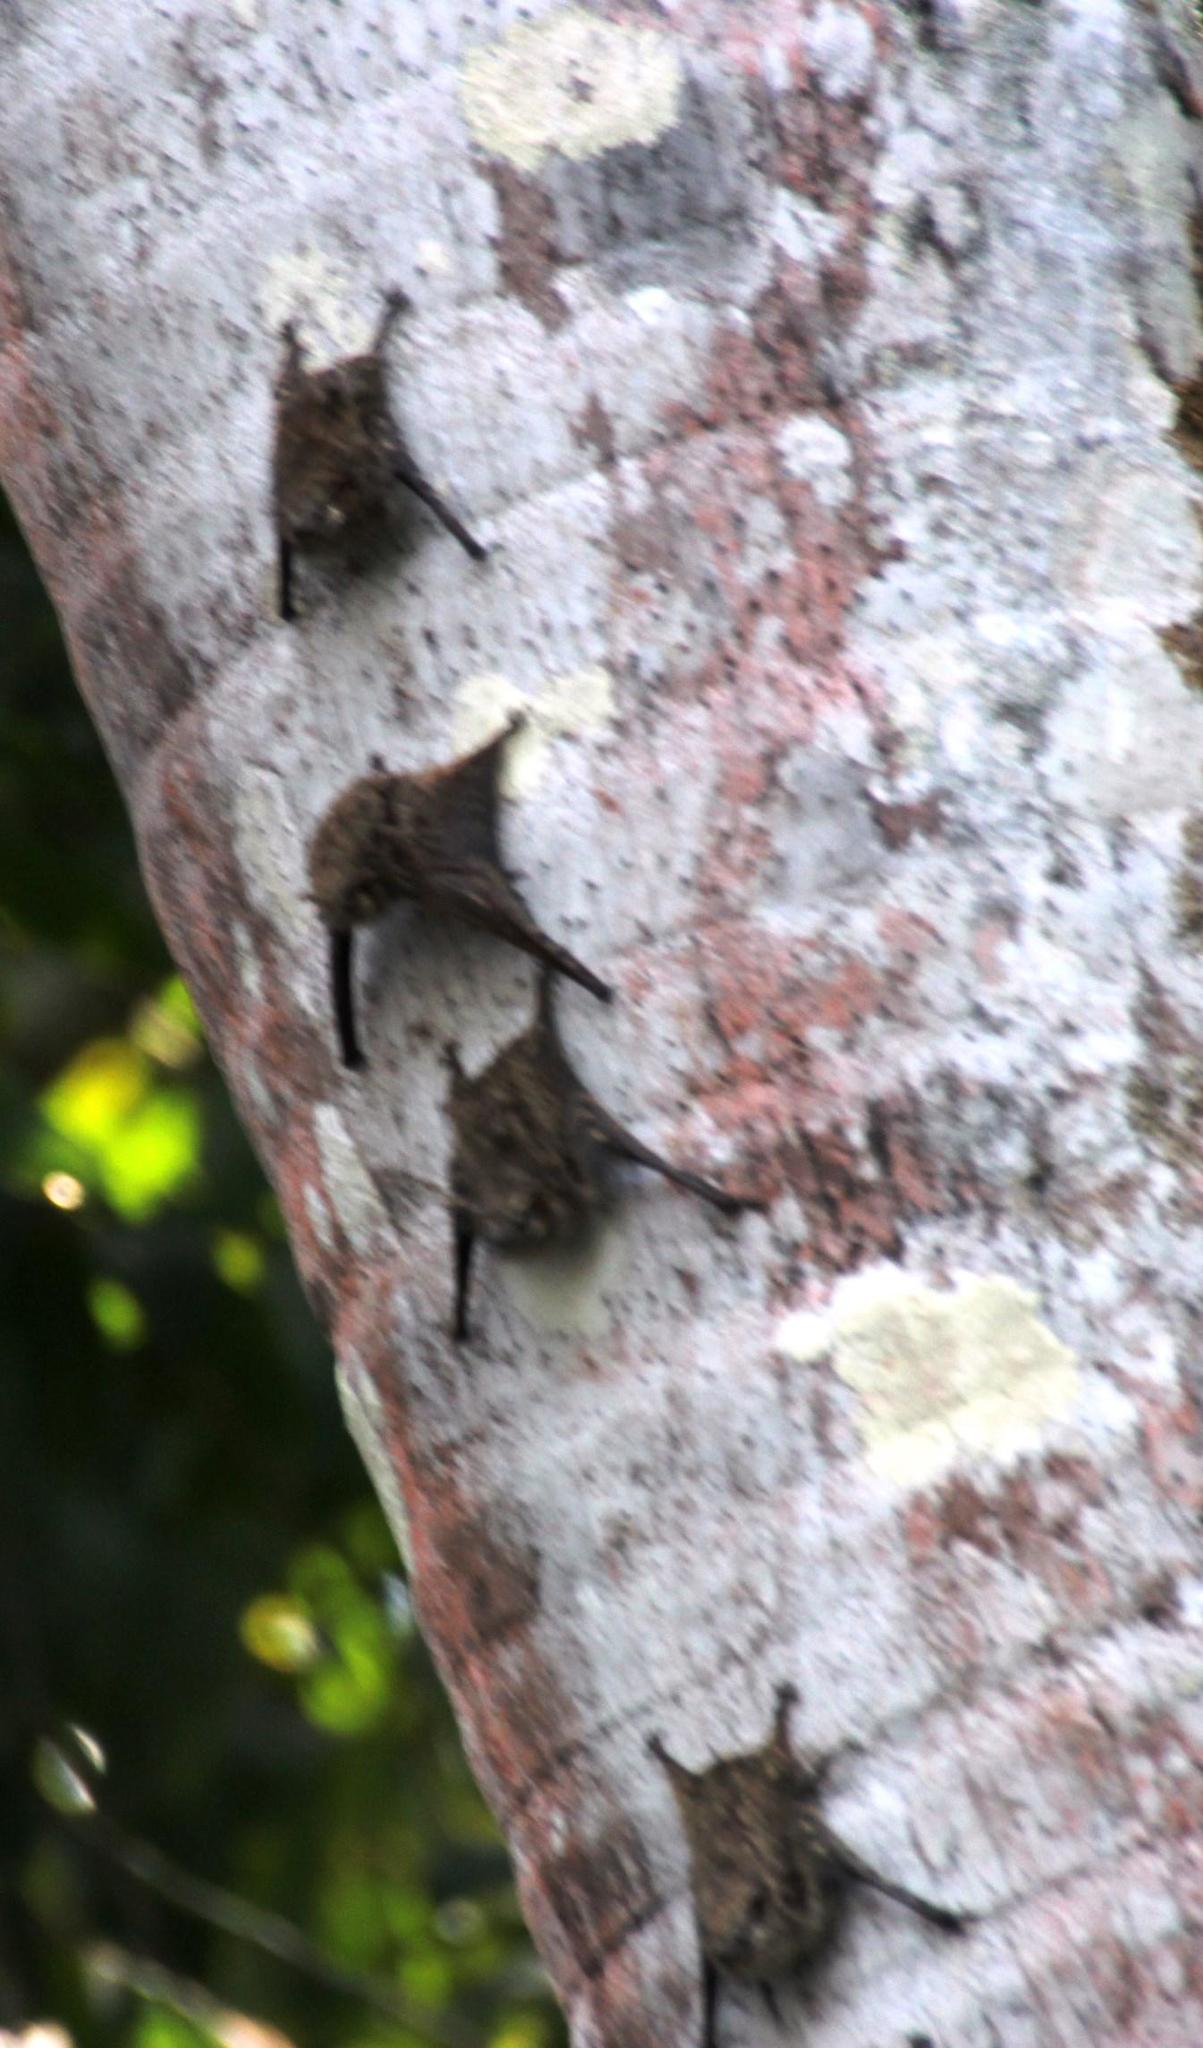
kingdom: Animalia
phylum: Chordata
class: Mammalia
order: Chiroptera
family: Emballonuridae
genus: Rhynchonycteris
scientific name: Rhynchonycteris naso
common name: Proboscis bat
